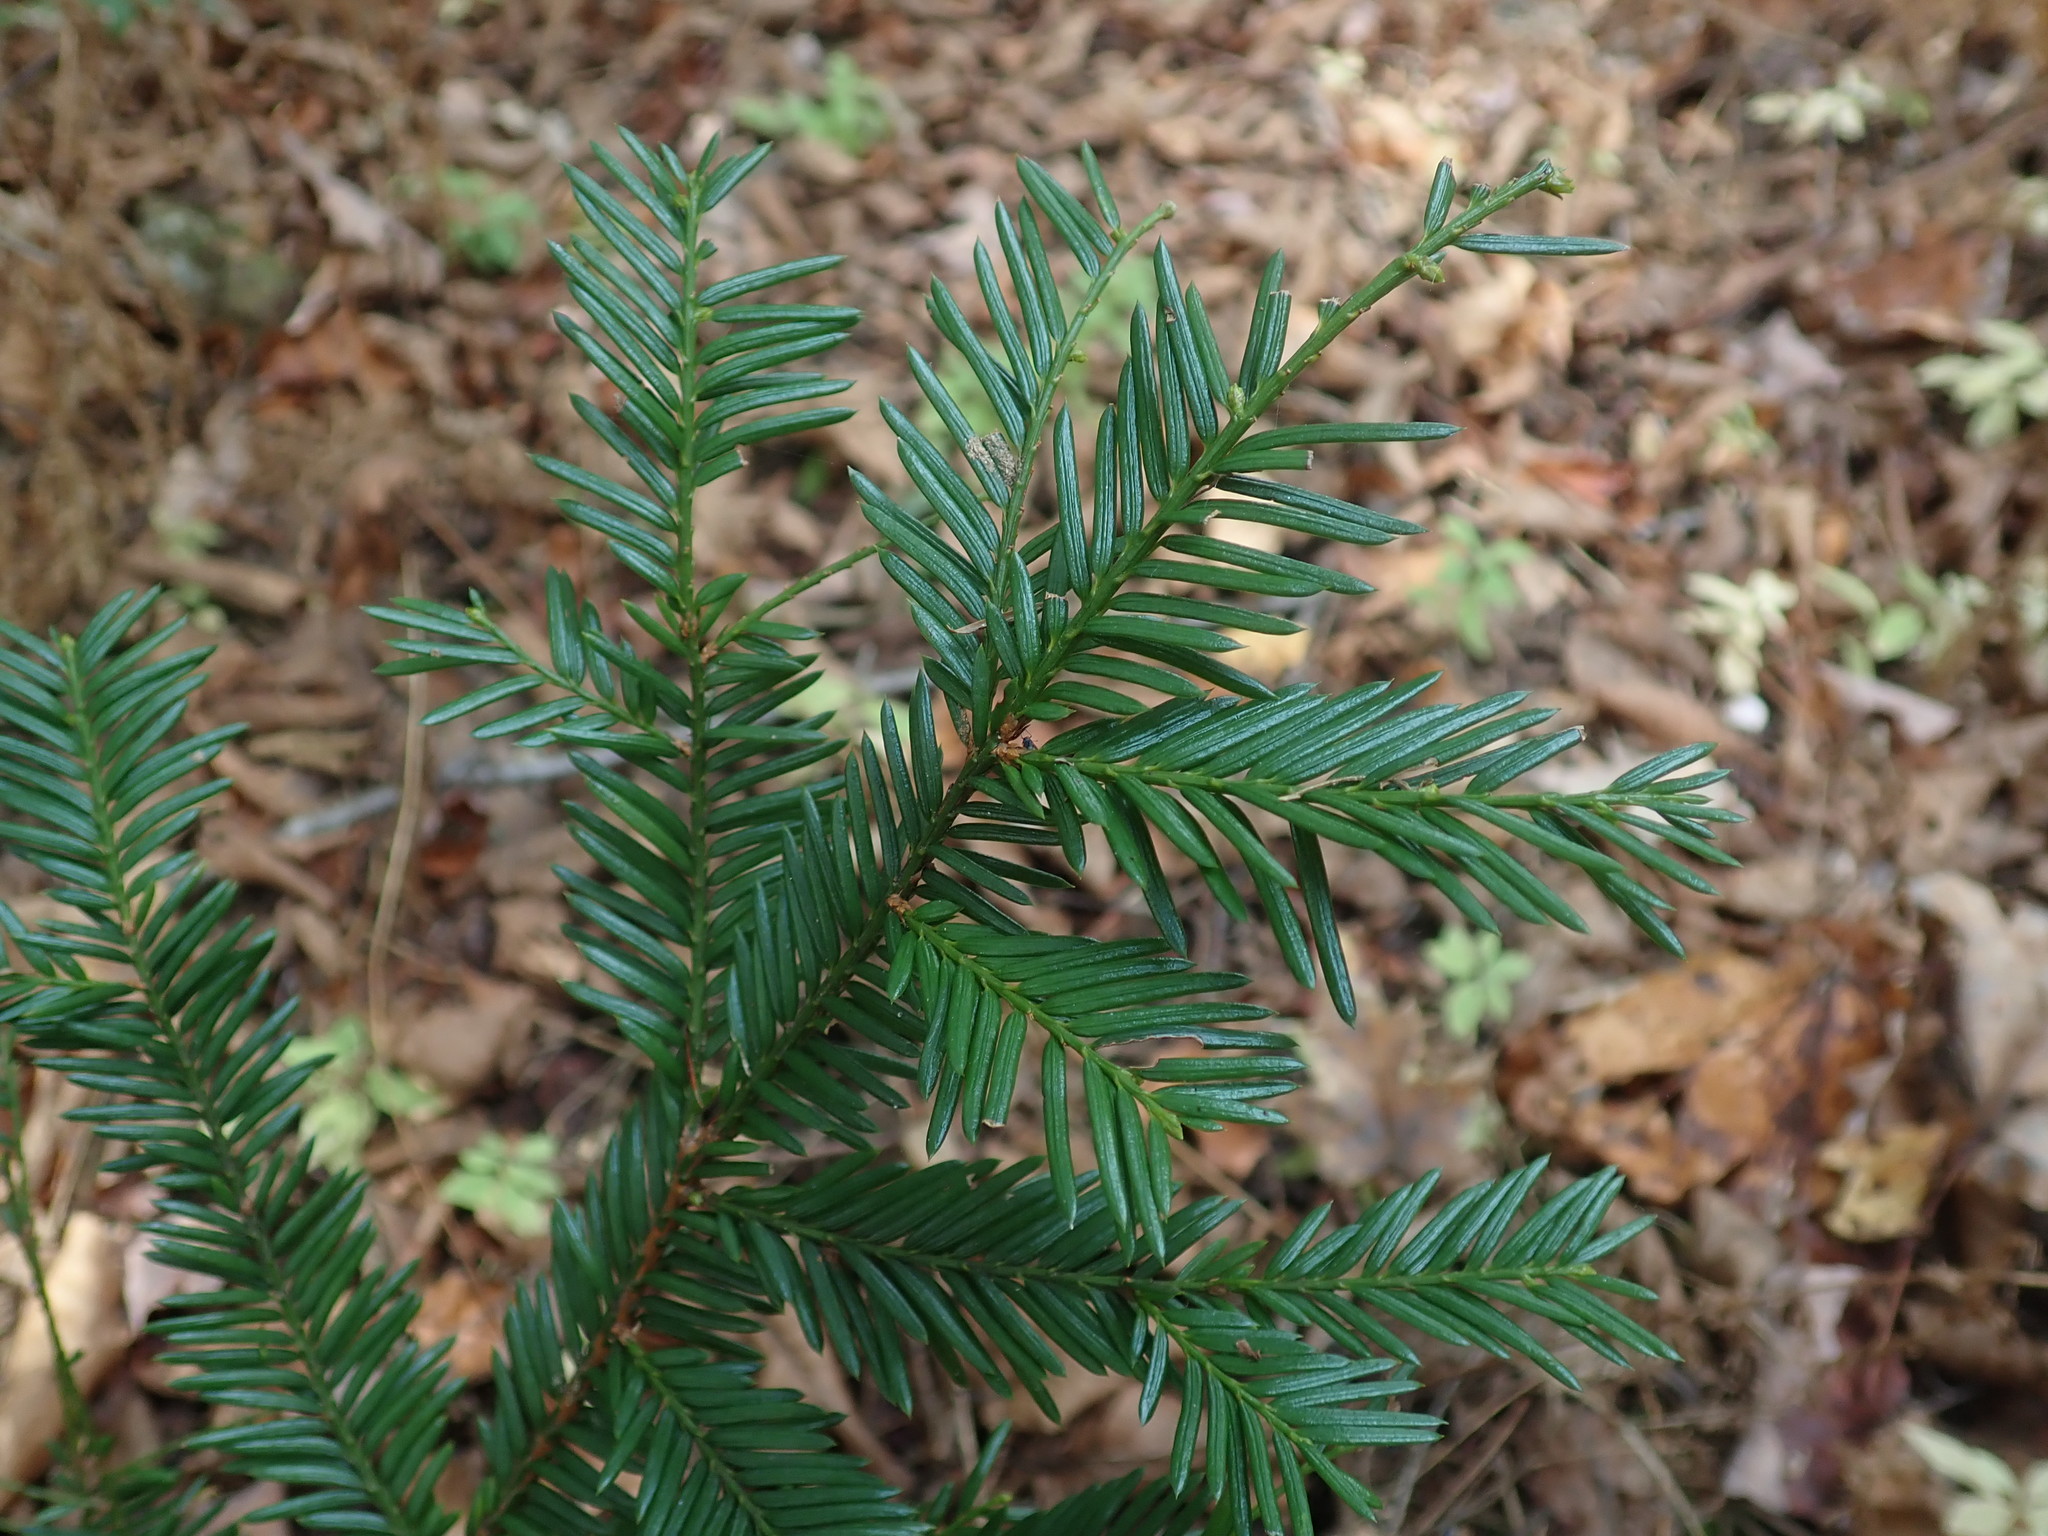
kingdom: Plantae
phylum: Tracheophyta
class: Pinopsida
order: Pinales
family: Taxaceae
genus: Taxus
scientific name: Taxus canadensis
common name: American yew
